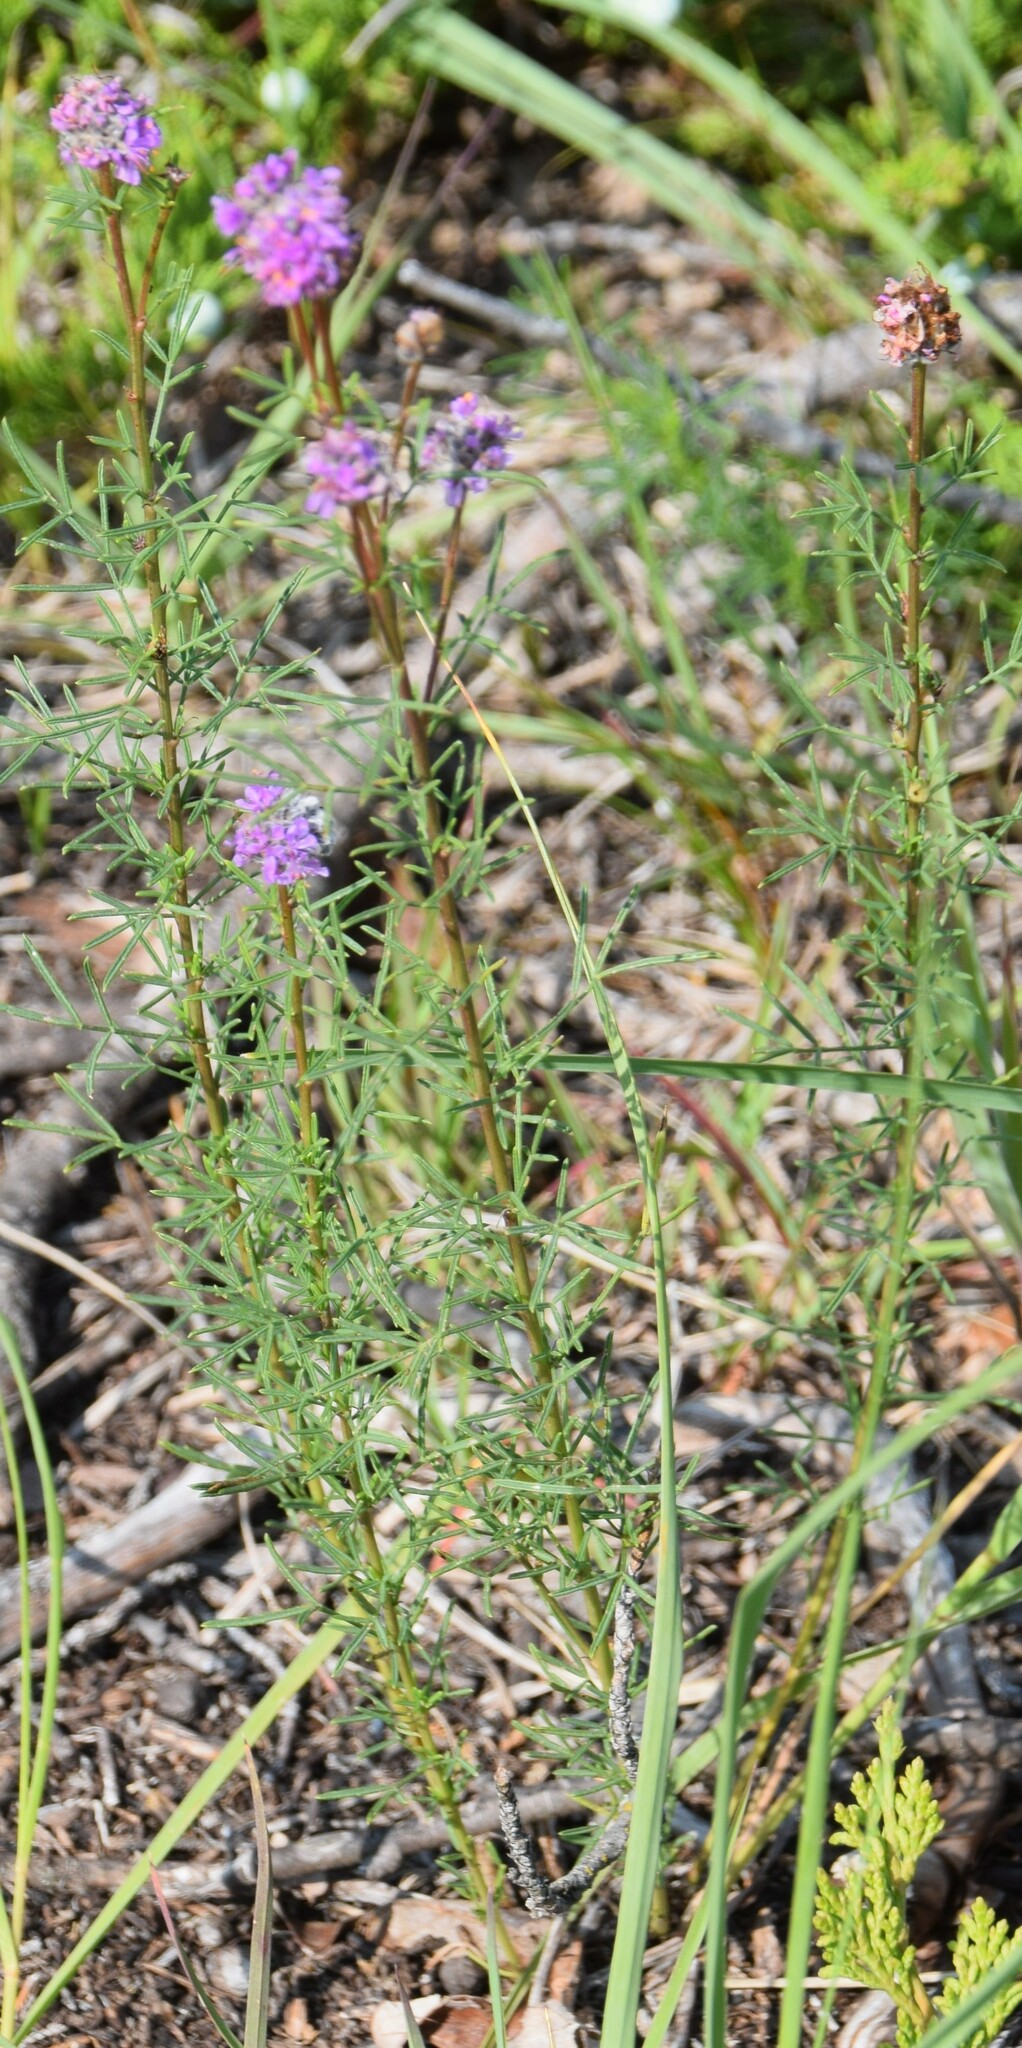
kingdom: Plantae
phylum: Tracheophyta
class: Magnoliopsida
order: Fabales
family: Fabaceae
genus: Dalea
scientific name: Dalea purpurea
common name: Purple prairie-clover
